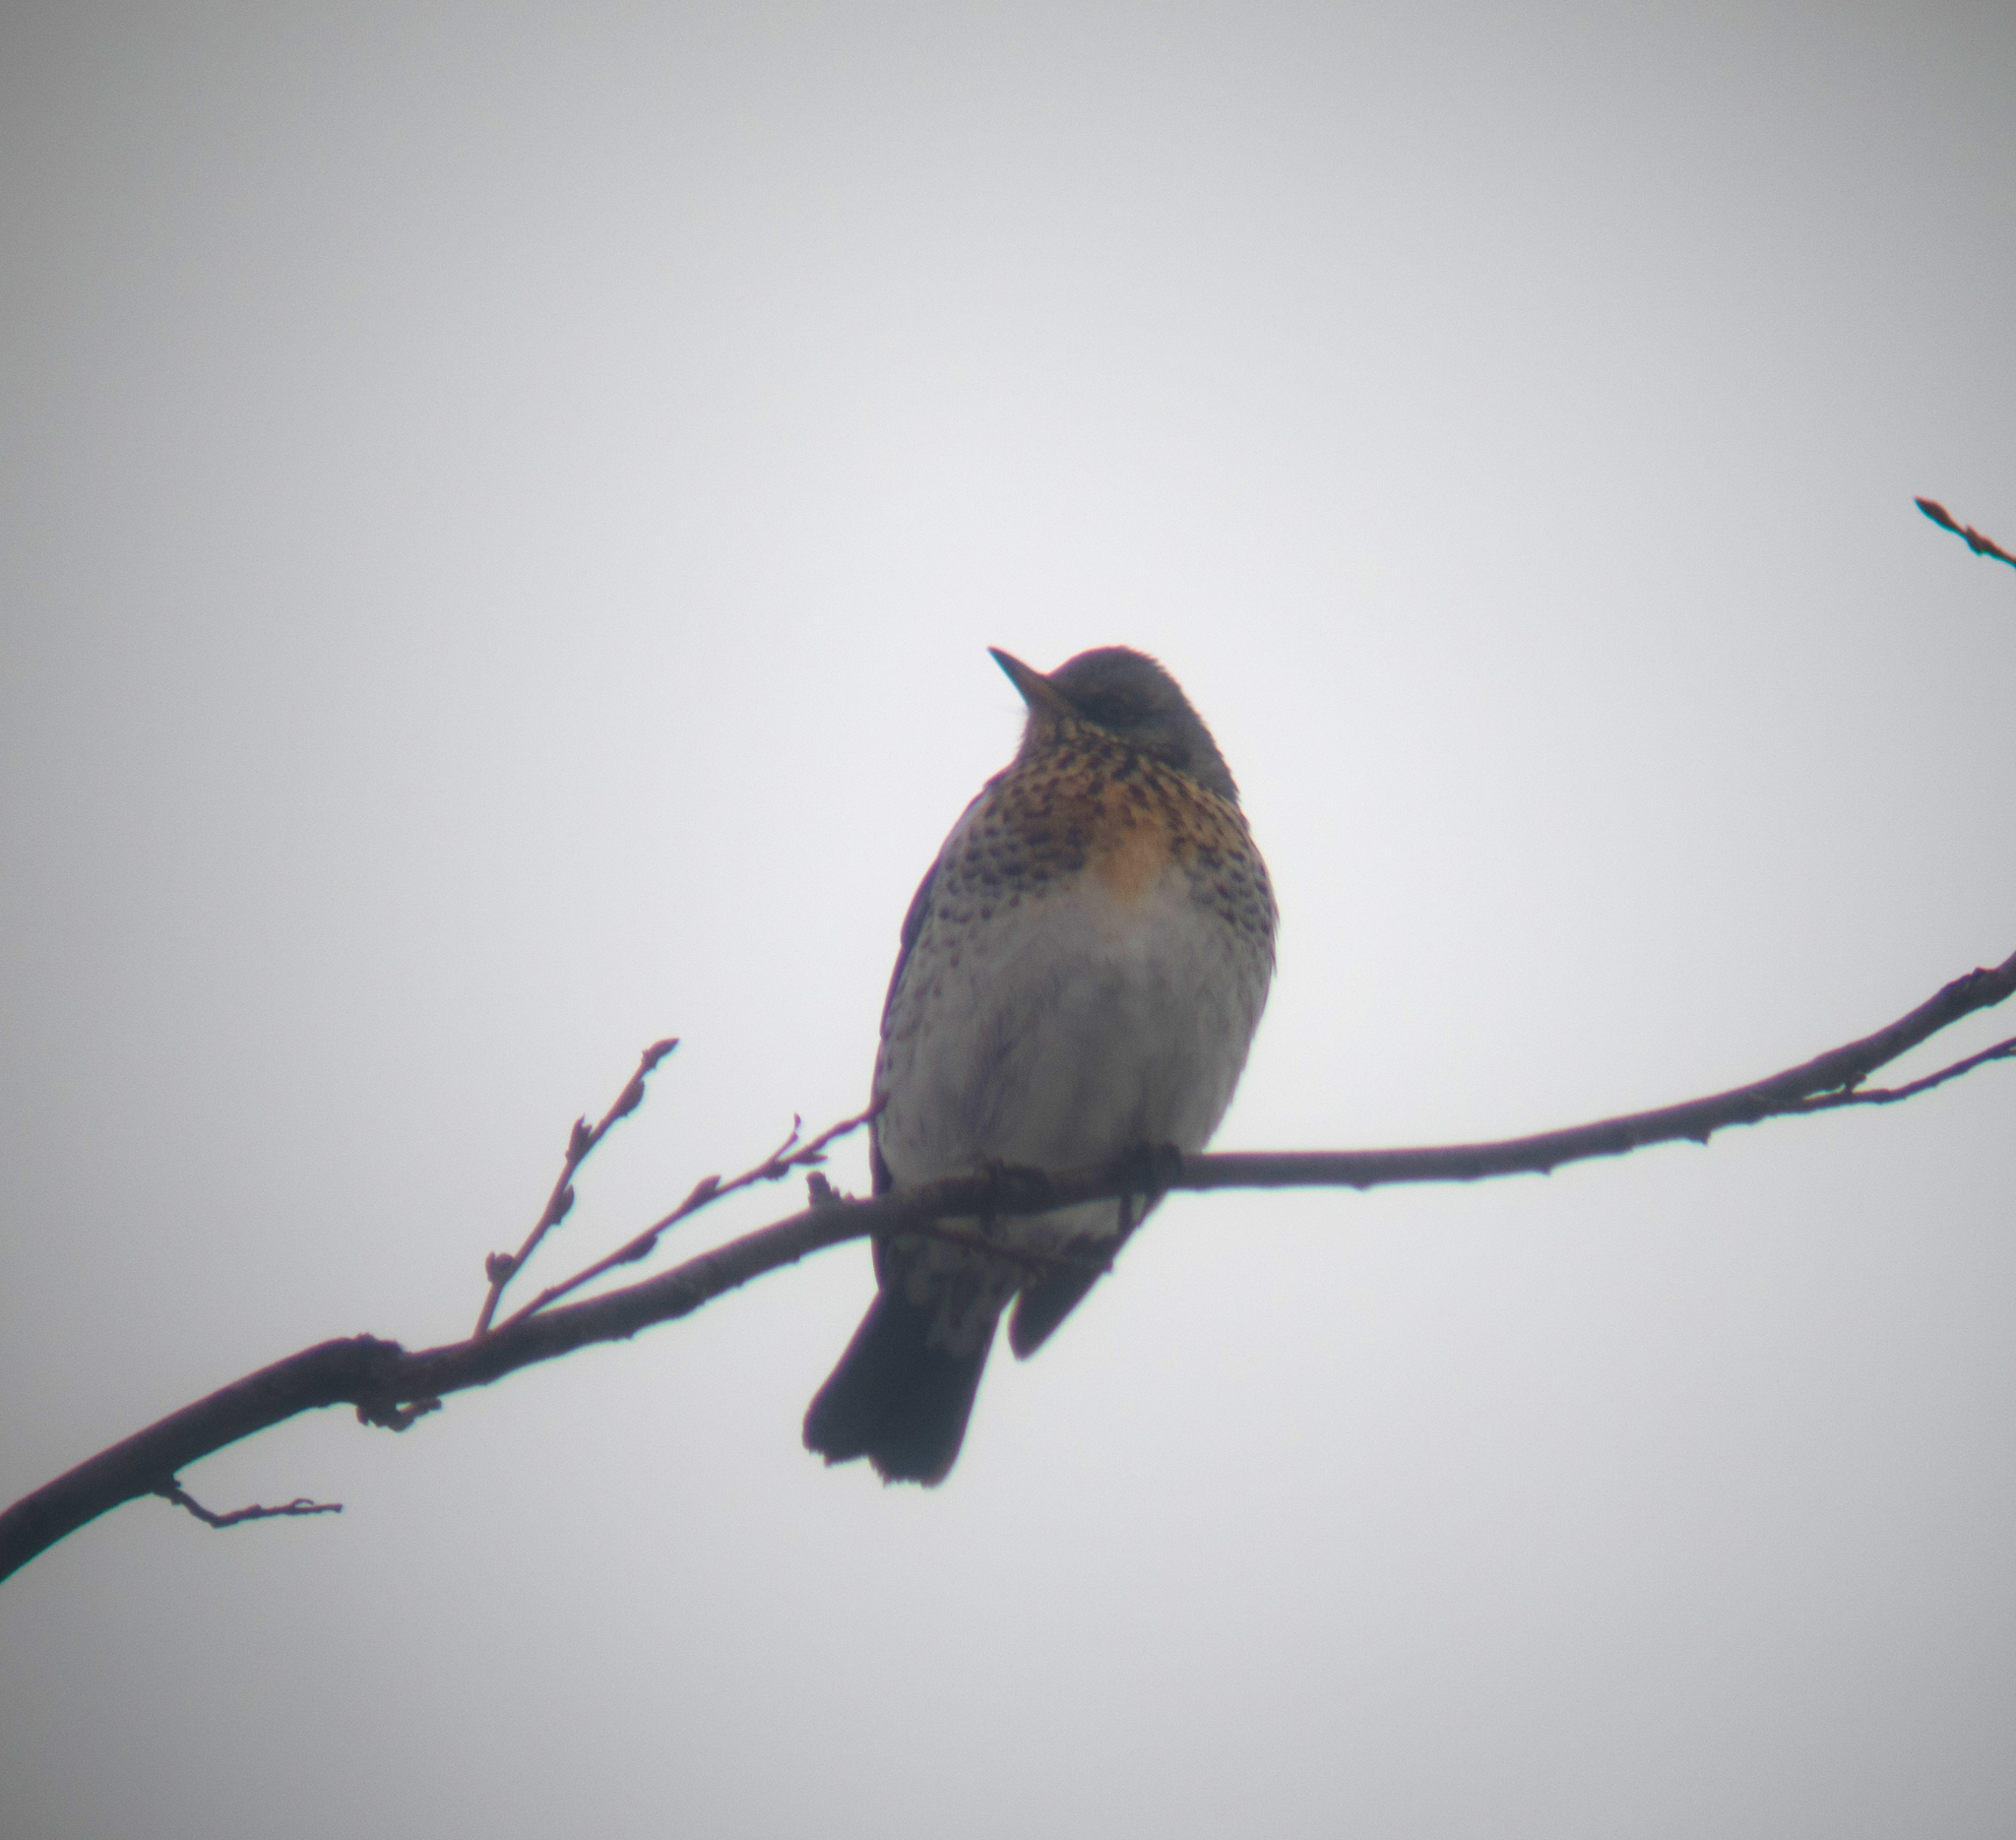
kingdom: Animalia
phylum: Chordata
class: Aves
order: Passeriformes
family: Turdidae
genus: Turdus
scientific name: Turdus pilaris
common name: Fieldfare
